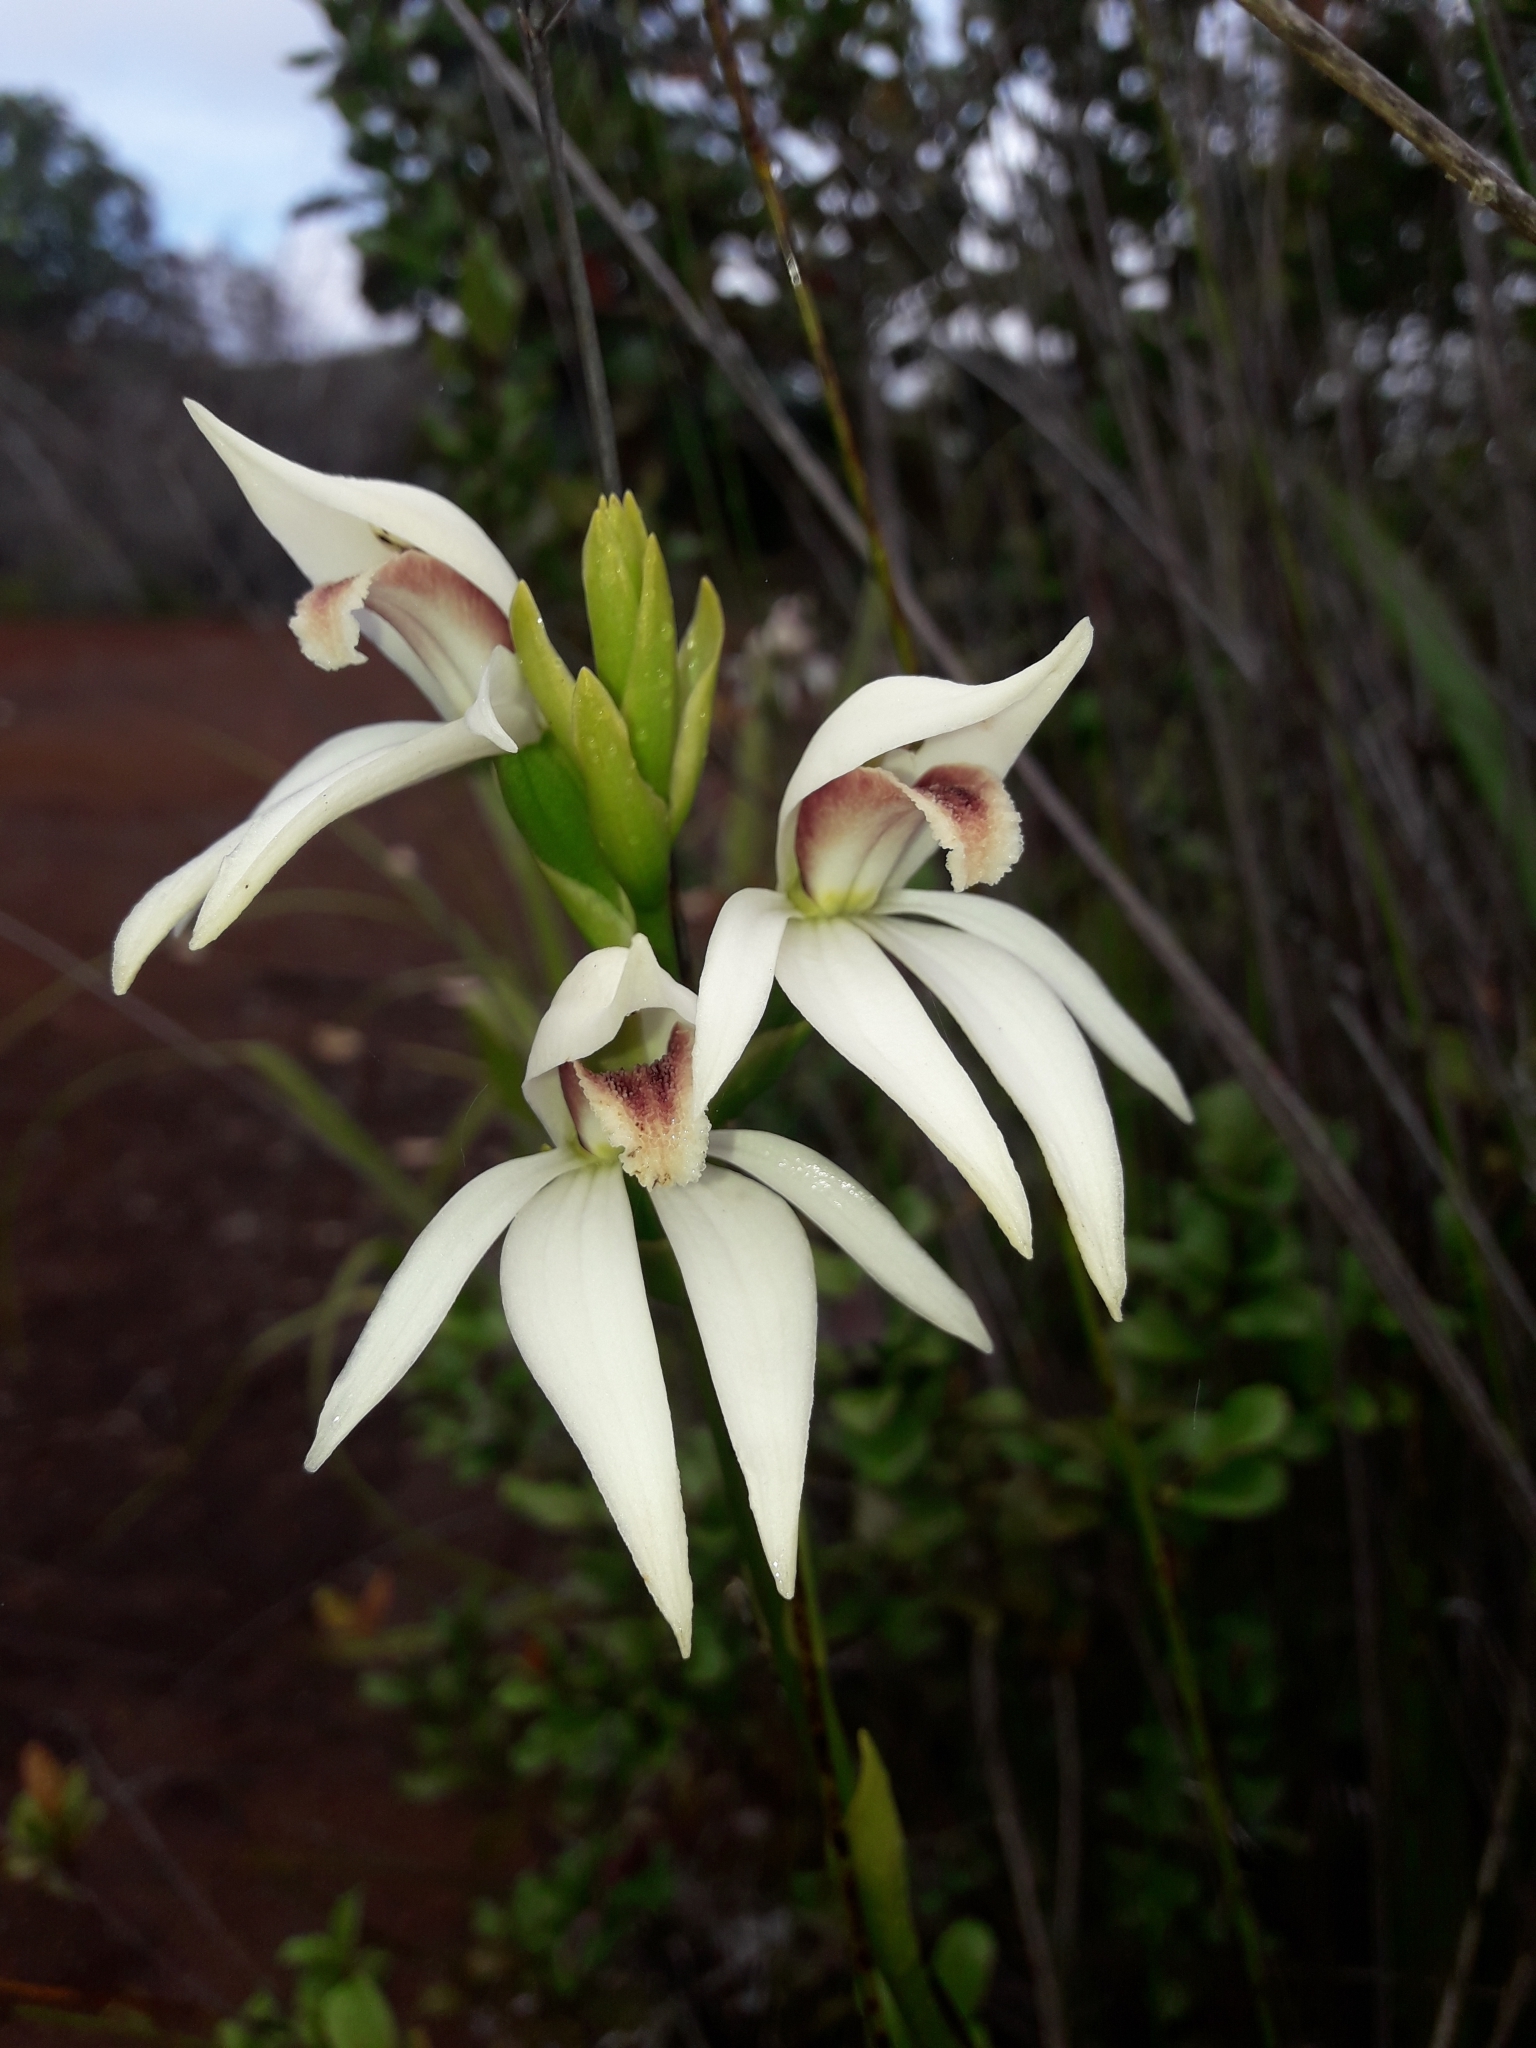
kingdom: Plantae
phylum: Tracheophyta
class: Liliopsida
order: Asparagales
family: Orchidaceae
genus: Megastylis
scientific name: Megastylis gigas
